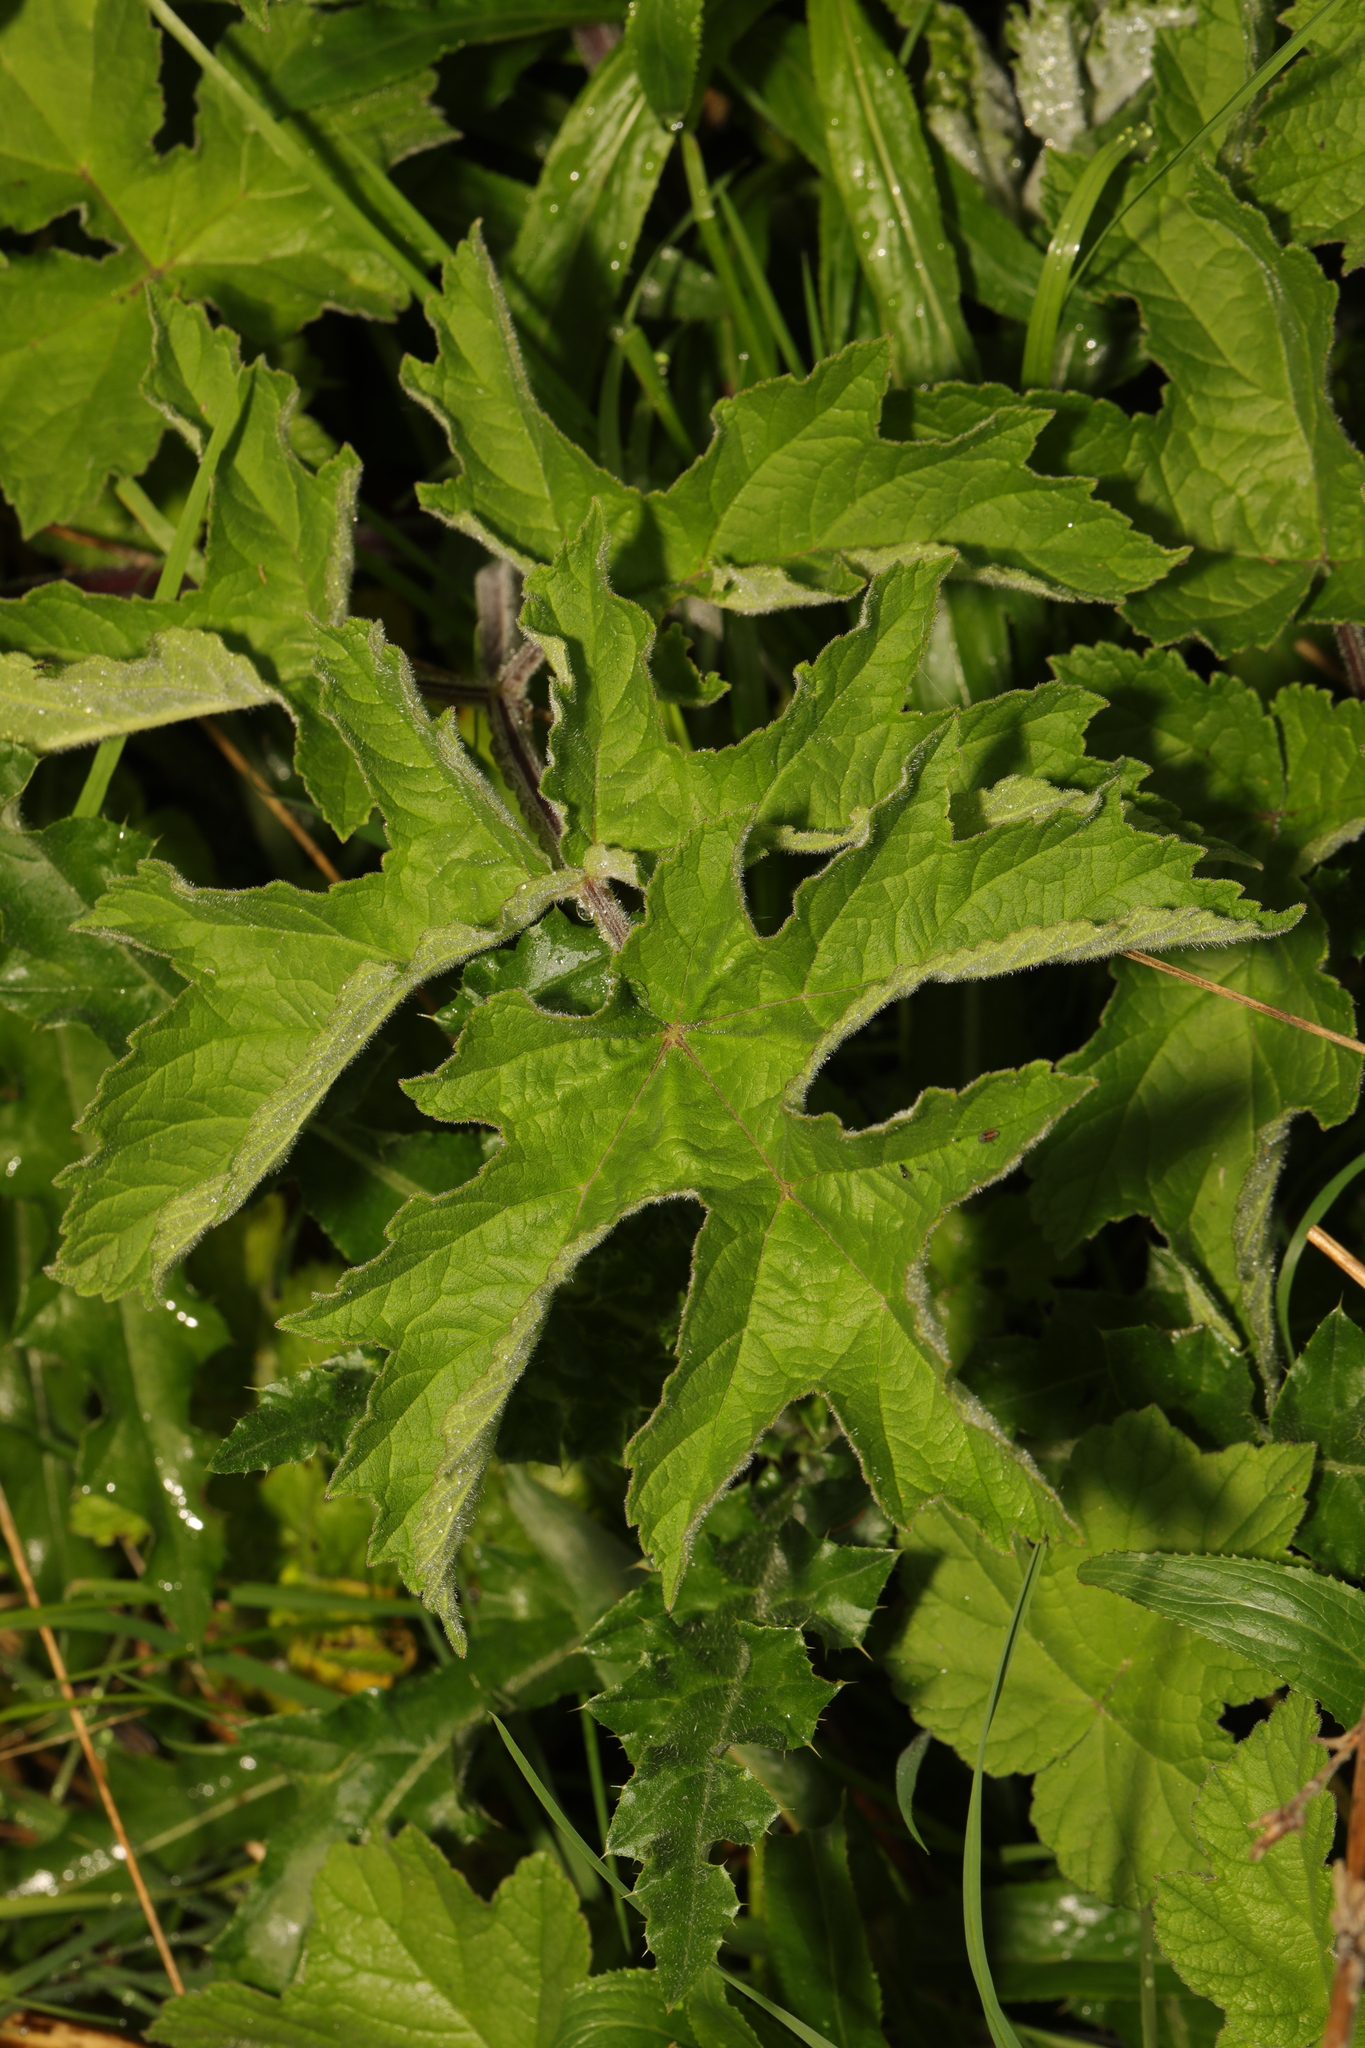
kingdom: Plantae
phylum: Tracheophyta
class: Magnoliopsida
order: Apiales
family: Apiaceae
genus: Heracleum
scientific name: Heracleum sphondylium
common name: Hogweed
